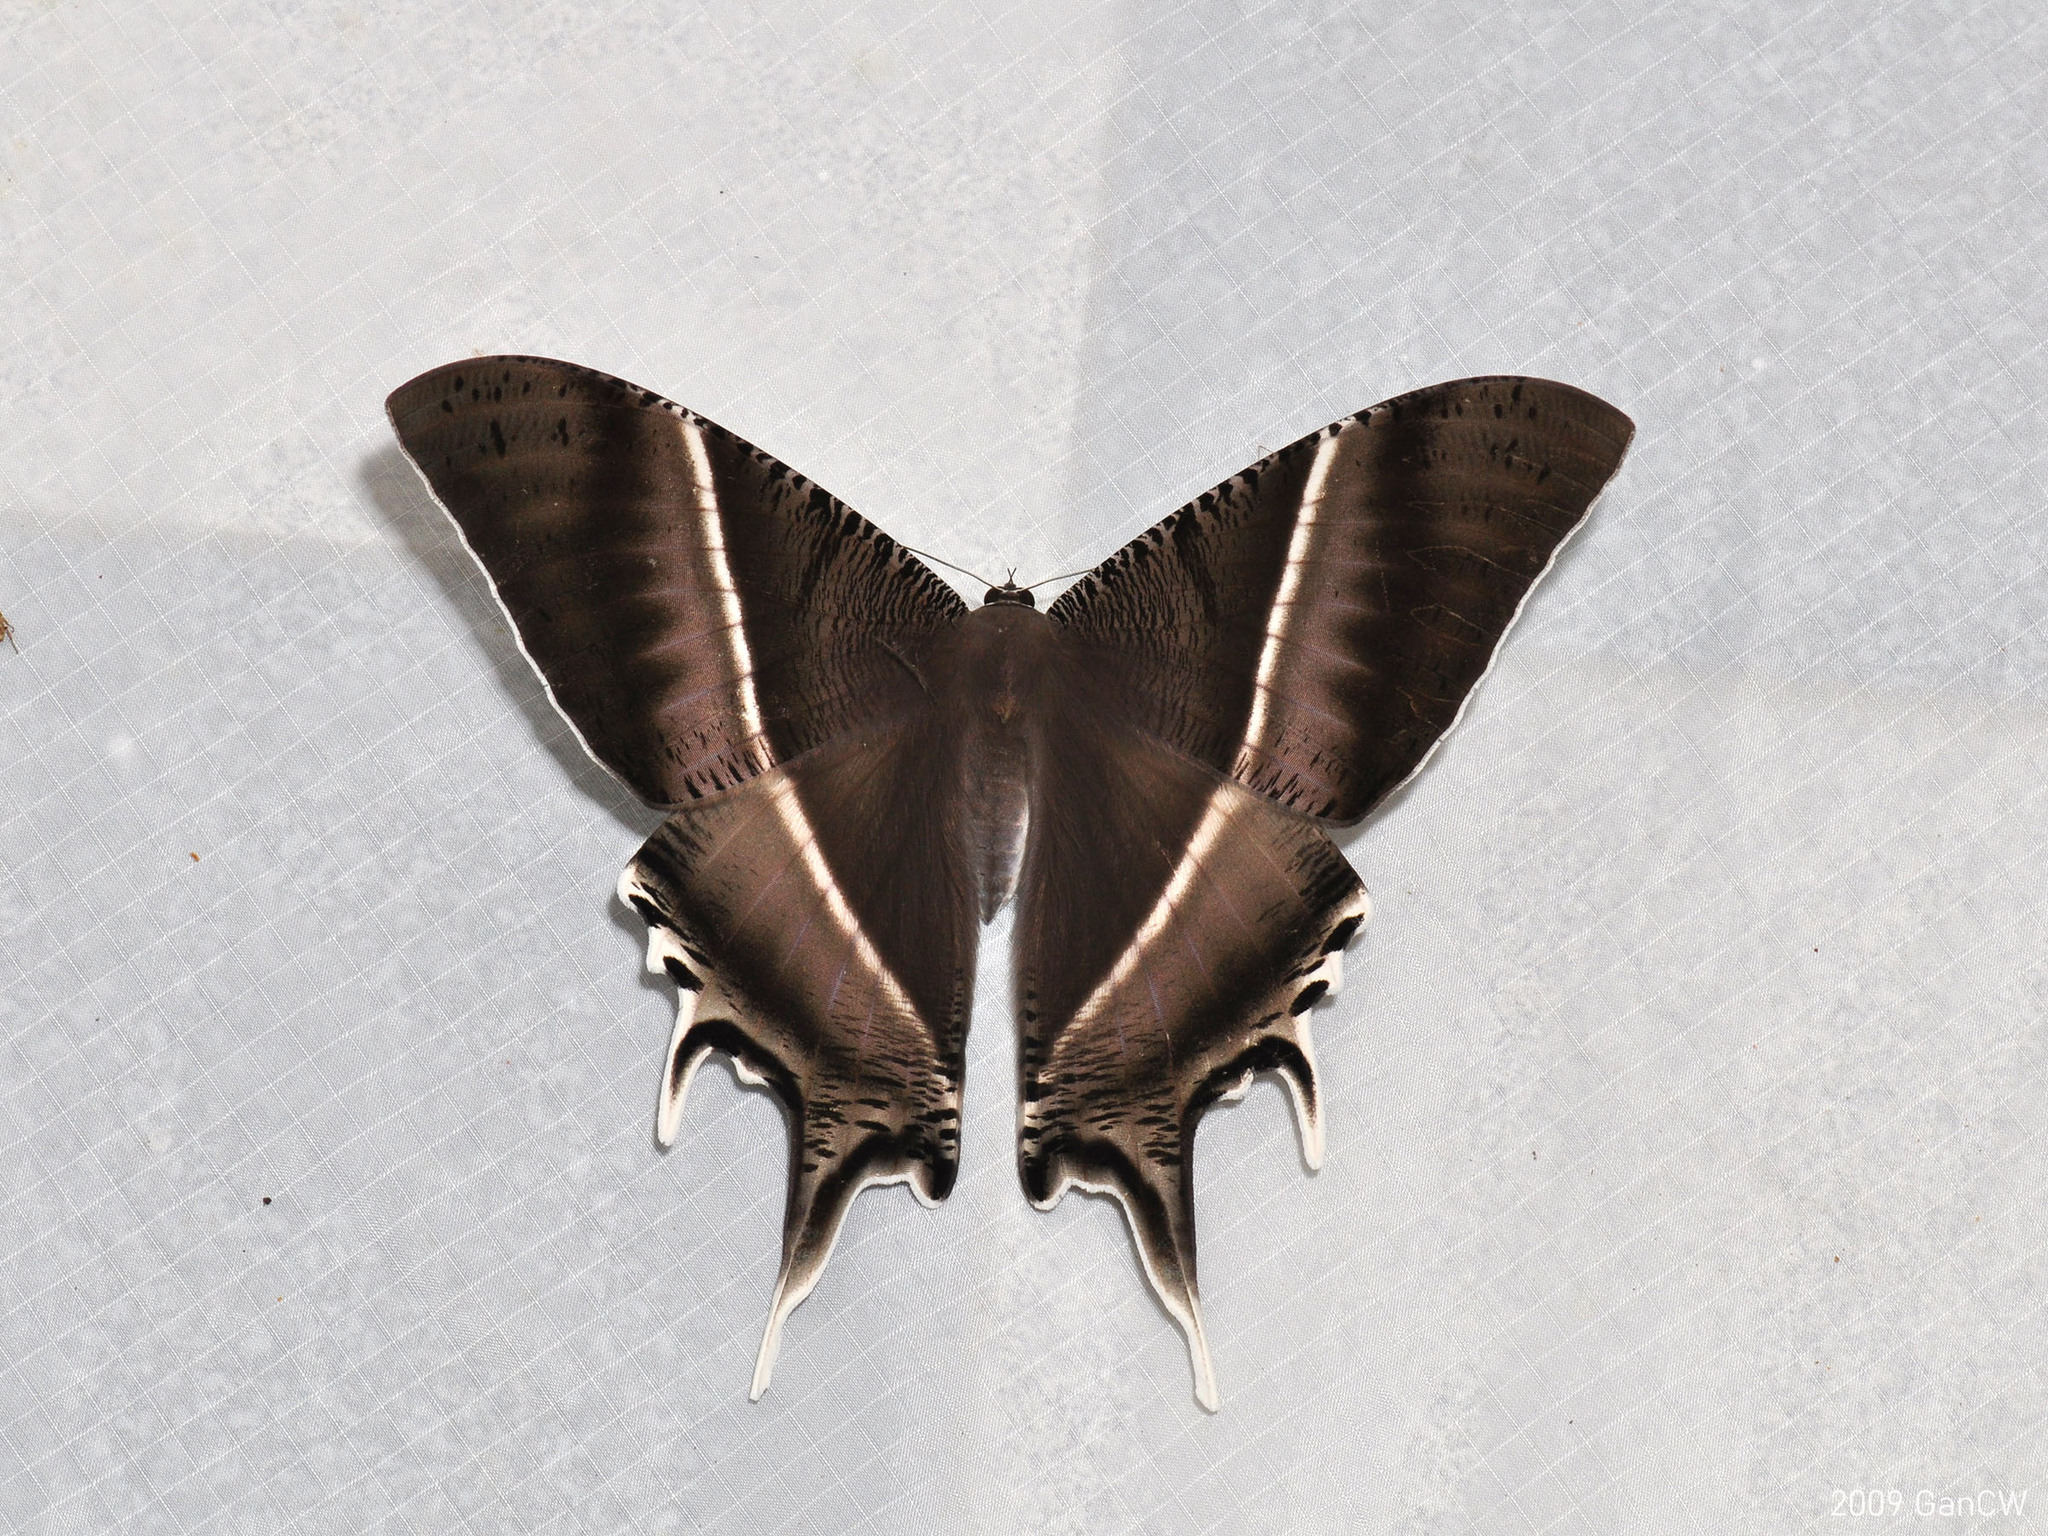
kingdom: Animalia
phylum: Arthropoda
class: Insecta
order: Lepidoptera
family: Uraniidae
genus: Lyssa
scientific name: Lyssa zampa
